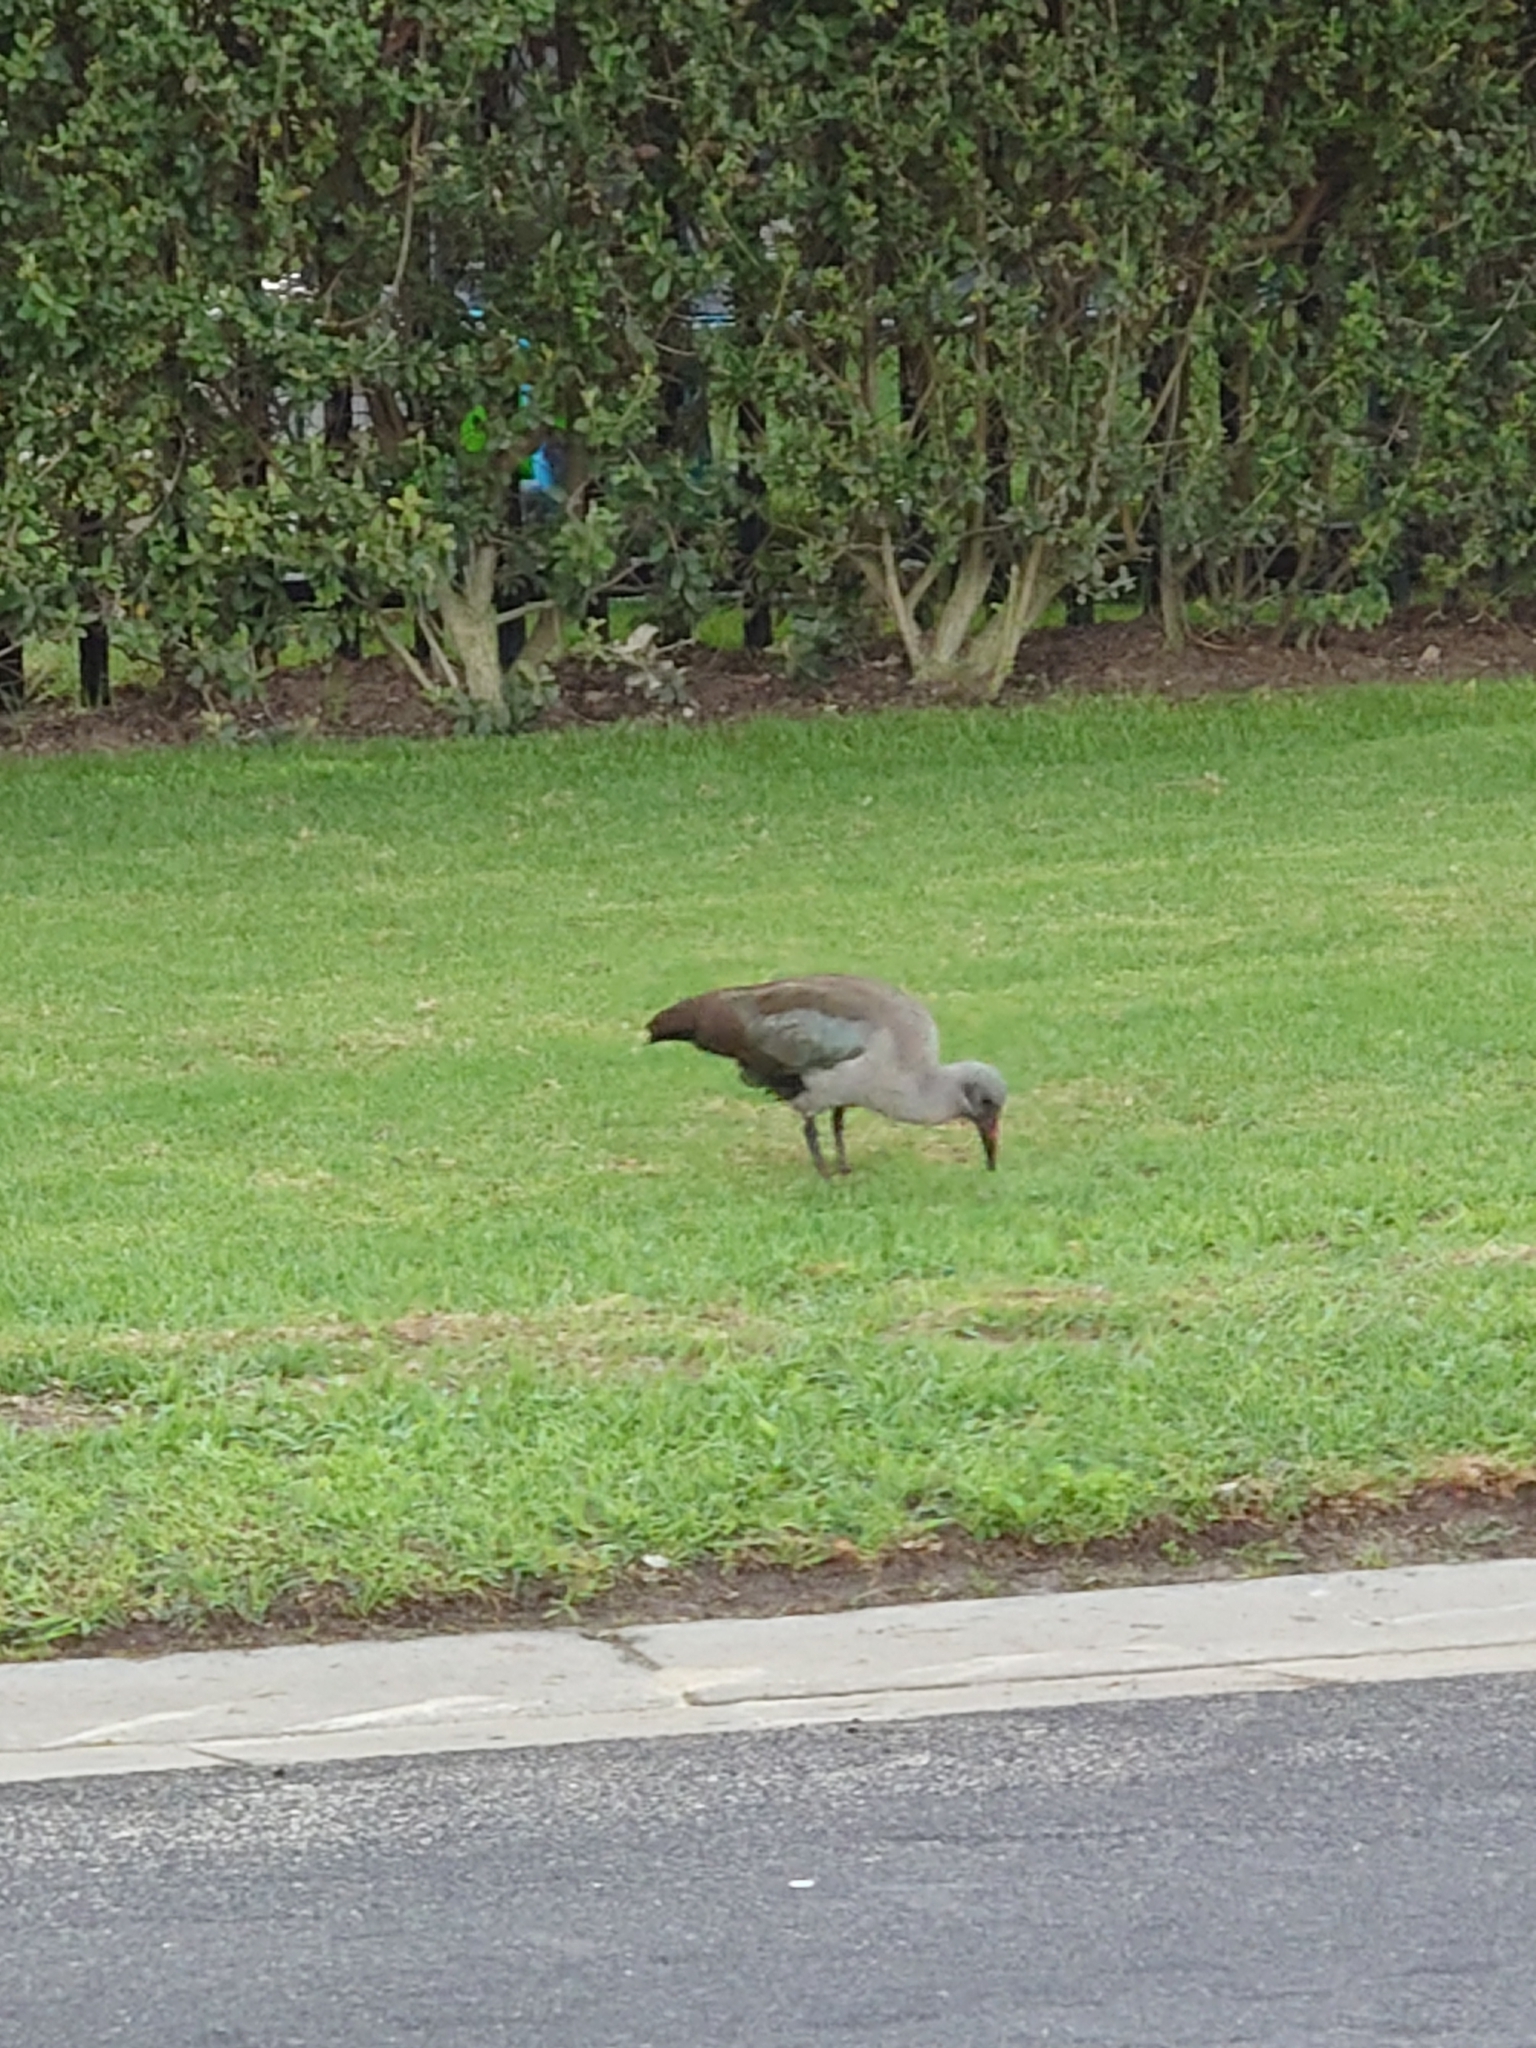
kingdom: Animalia
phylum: Chordata
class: Aves
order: Pelecaniformes
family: Threskiornithidae
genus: Bostrychia
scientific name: Bostrychia hagedash
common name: Hadada ibis
